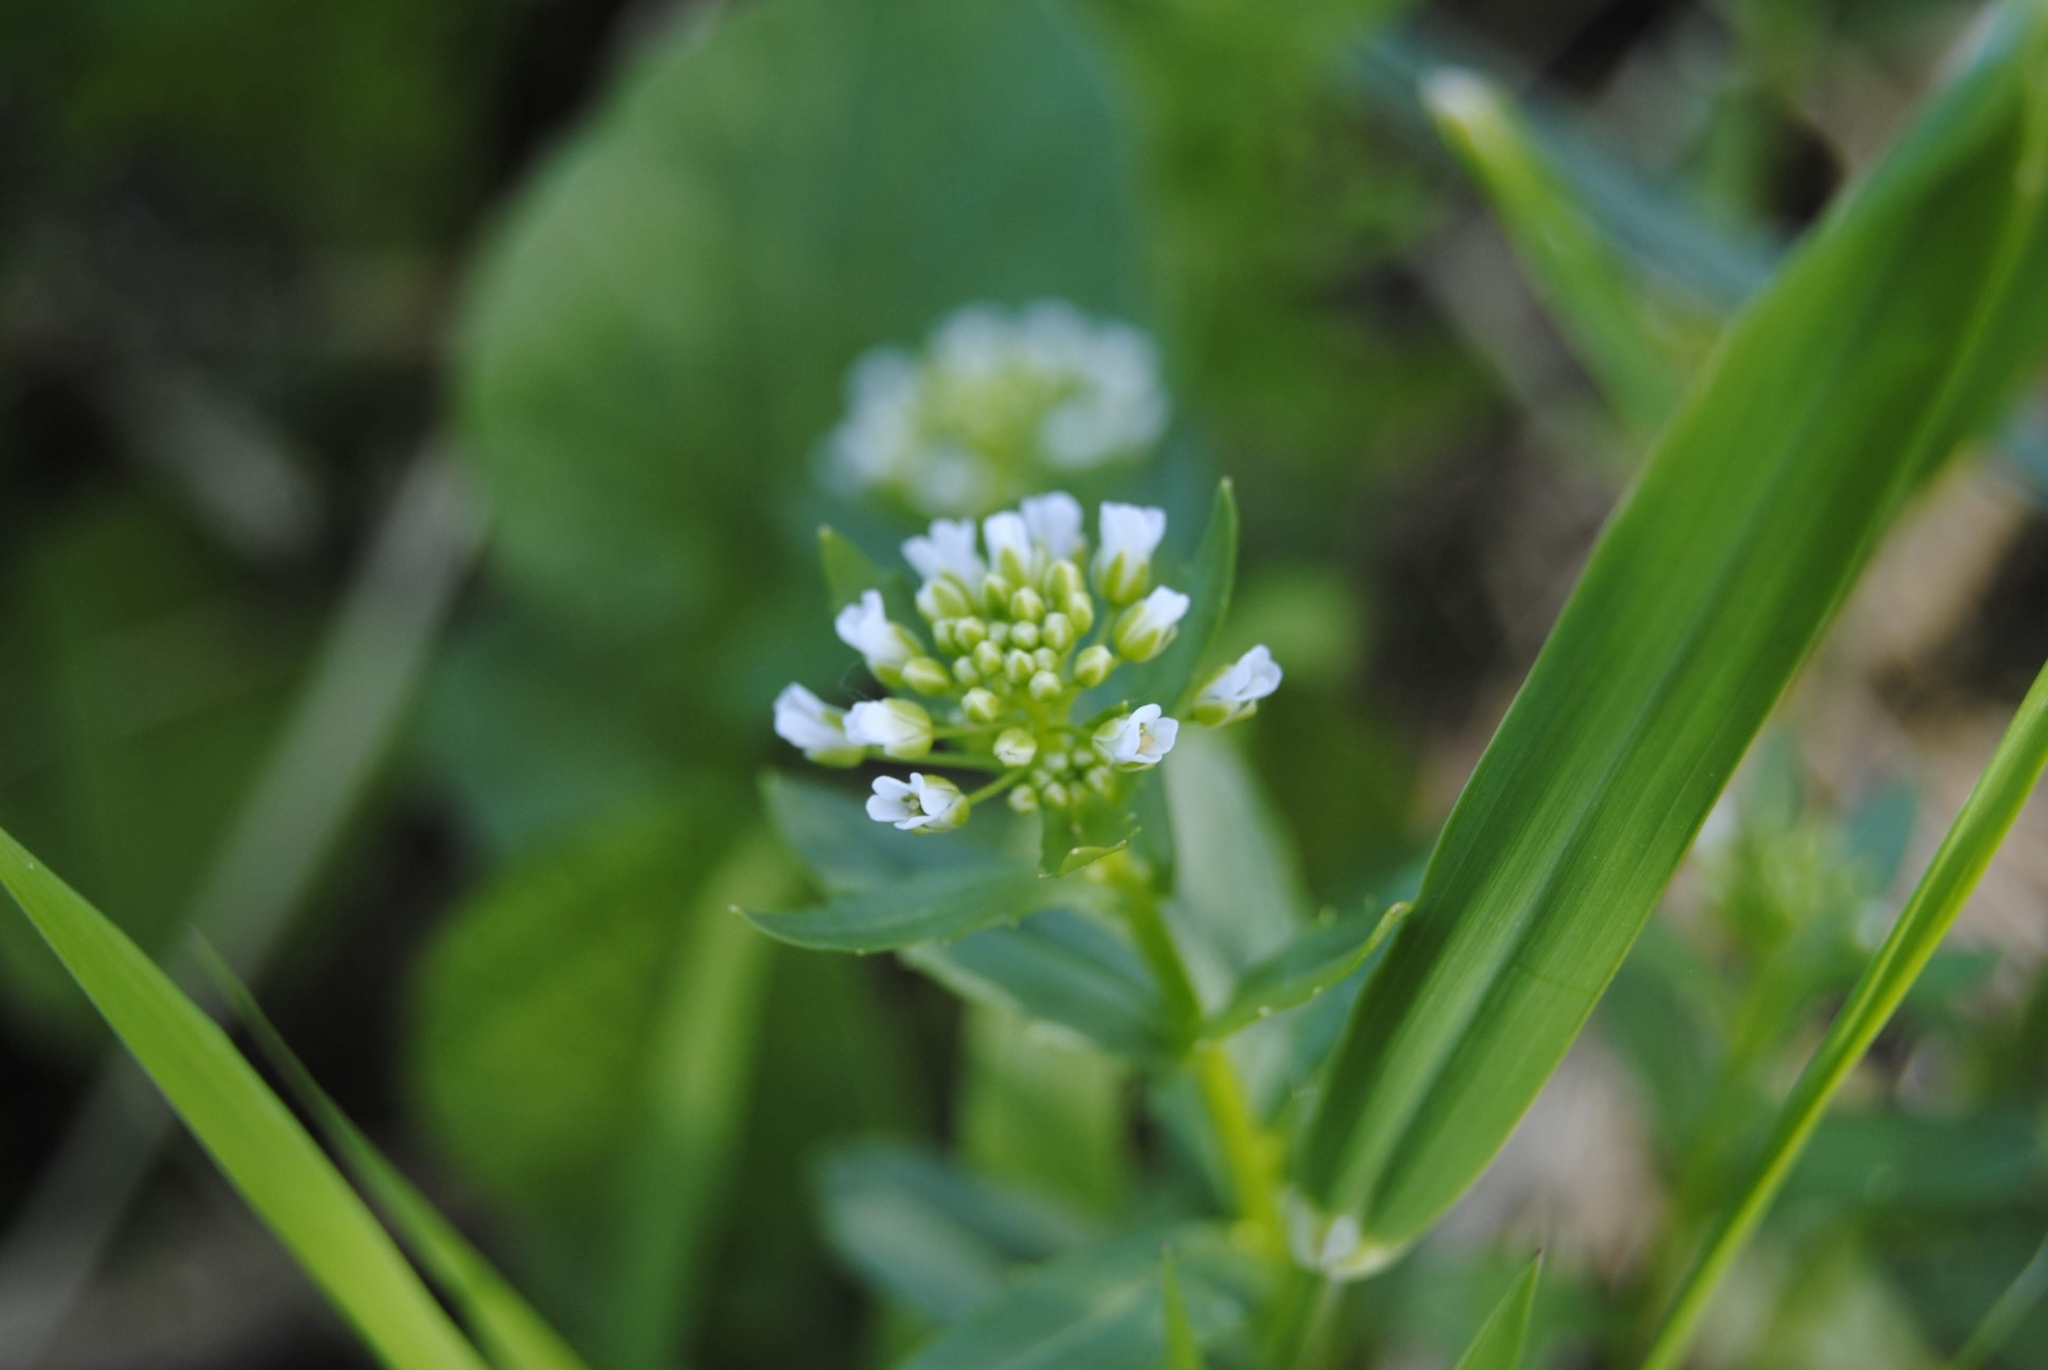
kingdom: Plantae
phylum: Tracheophyta
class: Magnoliopsida
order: Brassicales
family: Brassicaceae
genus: Thlaspi
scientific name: Thlaspi arvense
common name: Field pennycress
